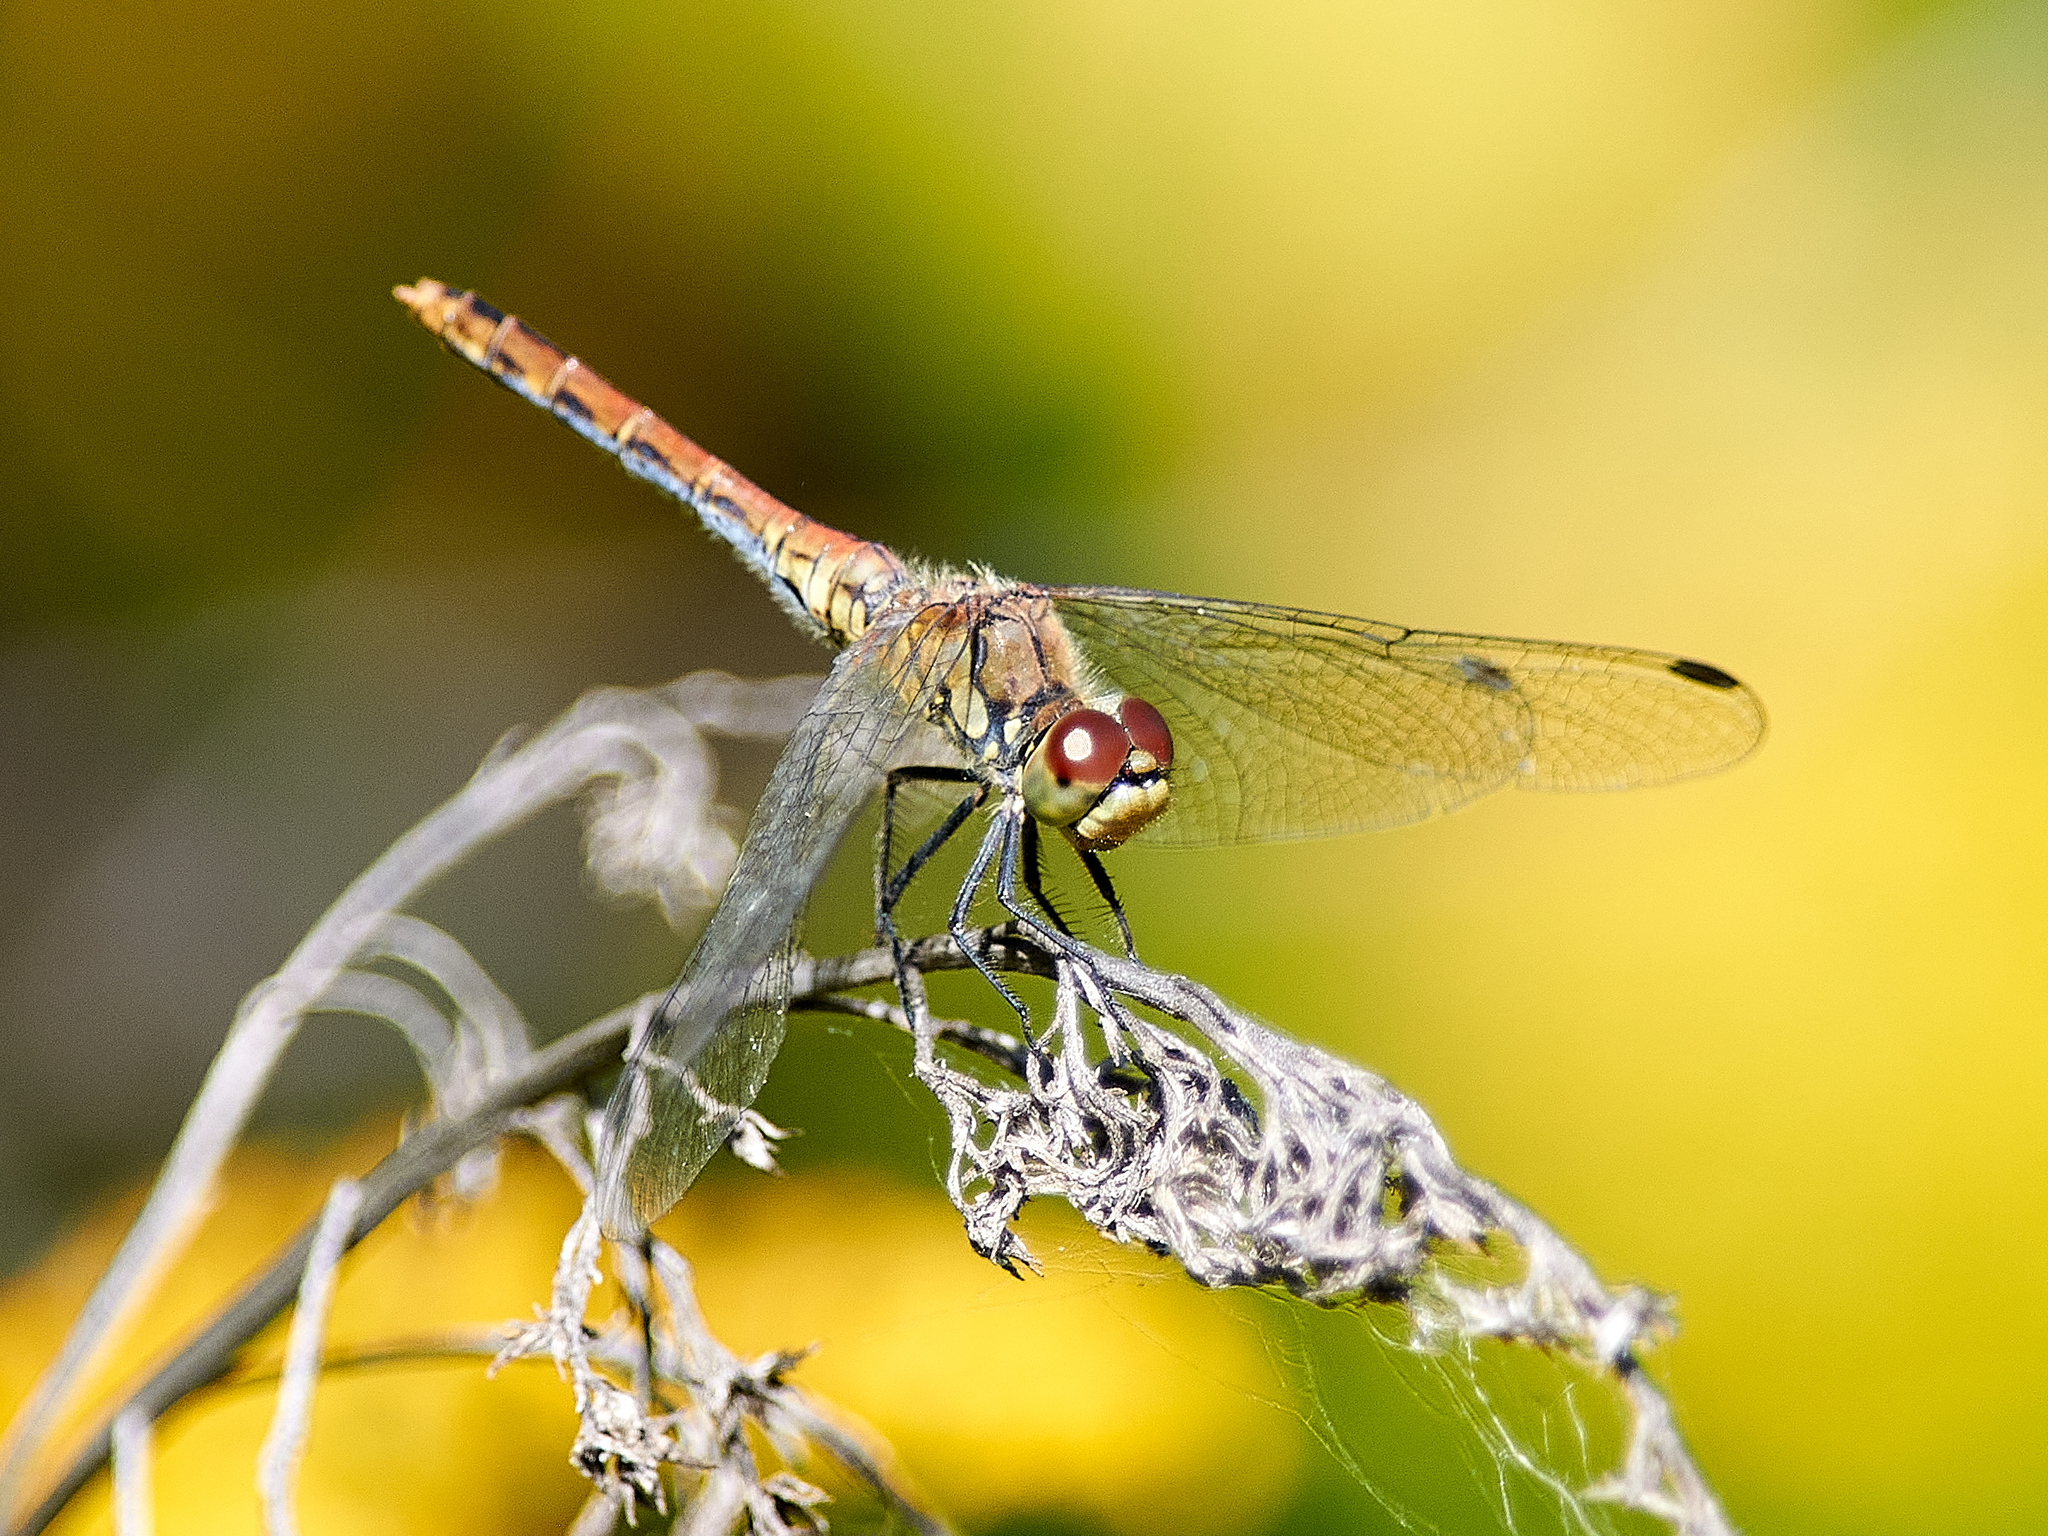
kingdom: Animalia
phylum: Arthropoda
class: Insecta
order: Odonata
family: Libellulidae
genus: Sympetrum
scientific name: Sympetrum sanguineum
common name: Ruddy darter
